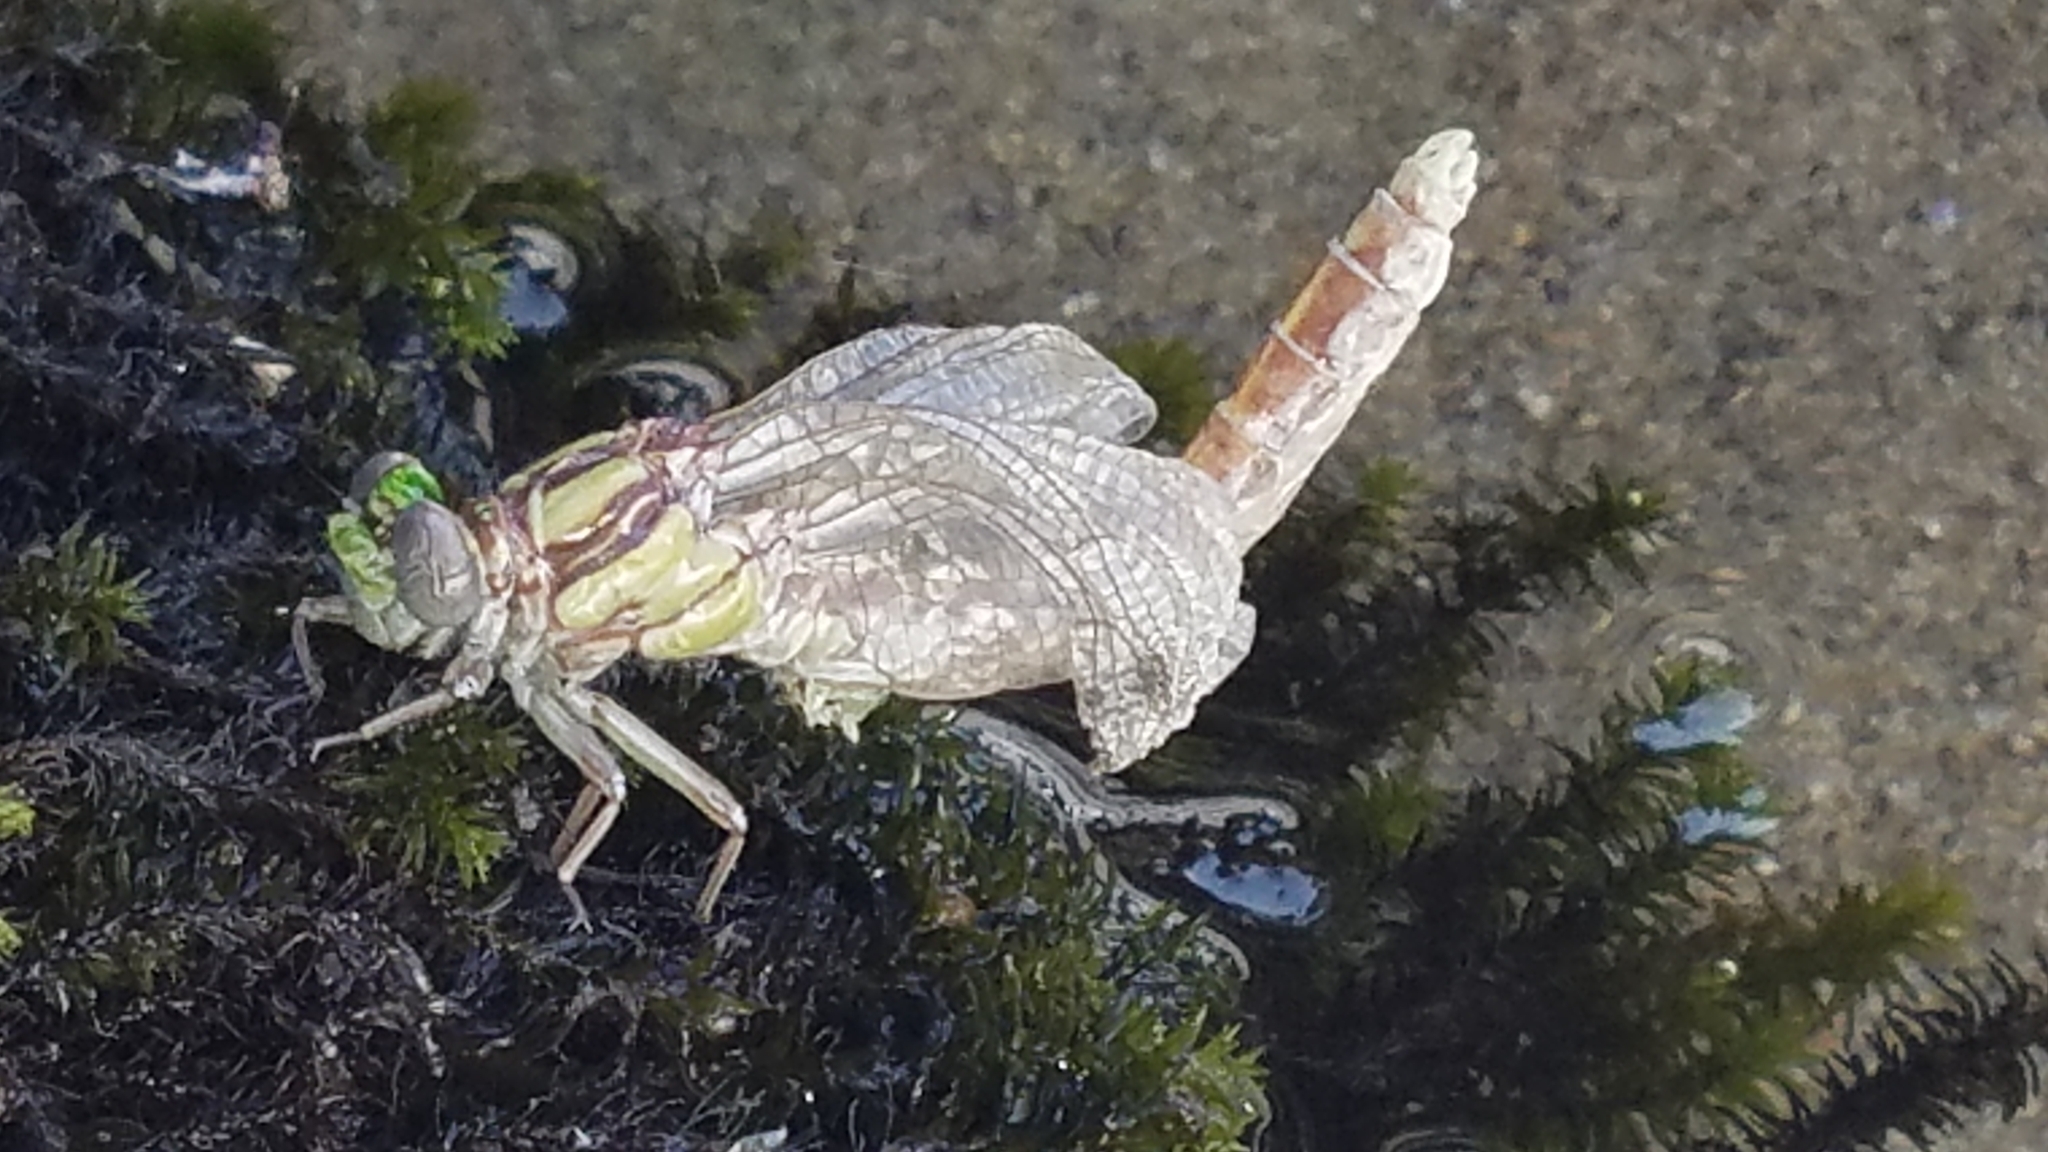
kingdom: Animalia
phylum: Arthropoda
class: Insecta
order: Odonata
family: Gomphidae
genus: Ophiogomphus
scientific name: Ophiogomphus occidentis
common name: Sinuous snaketail
